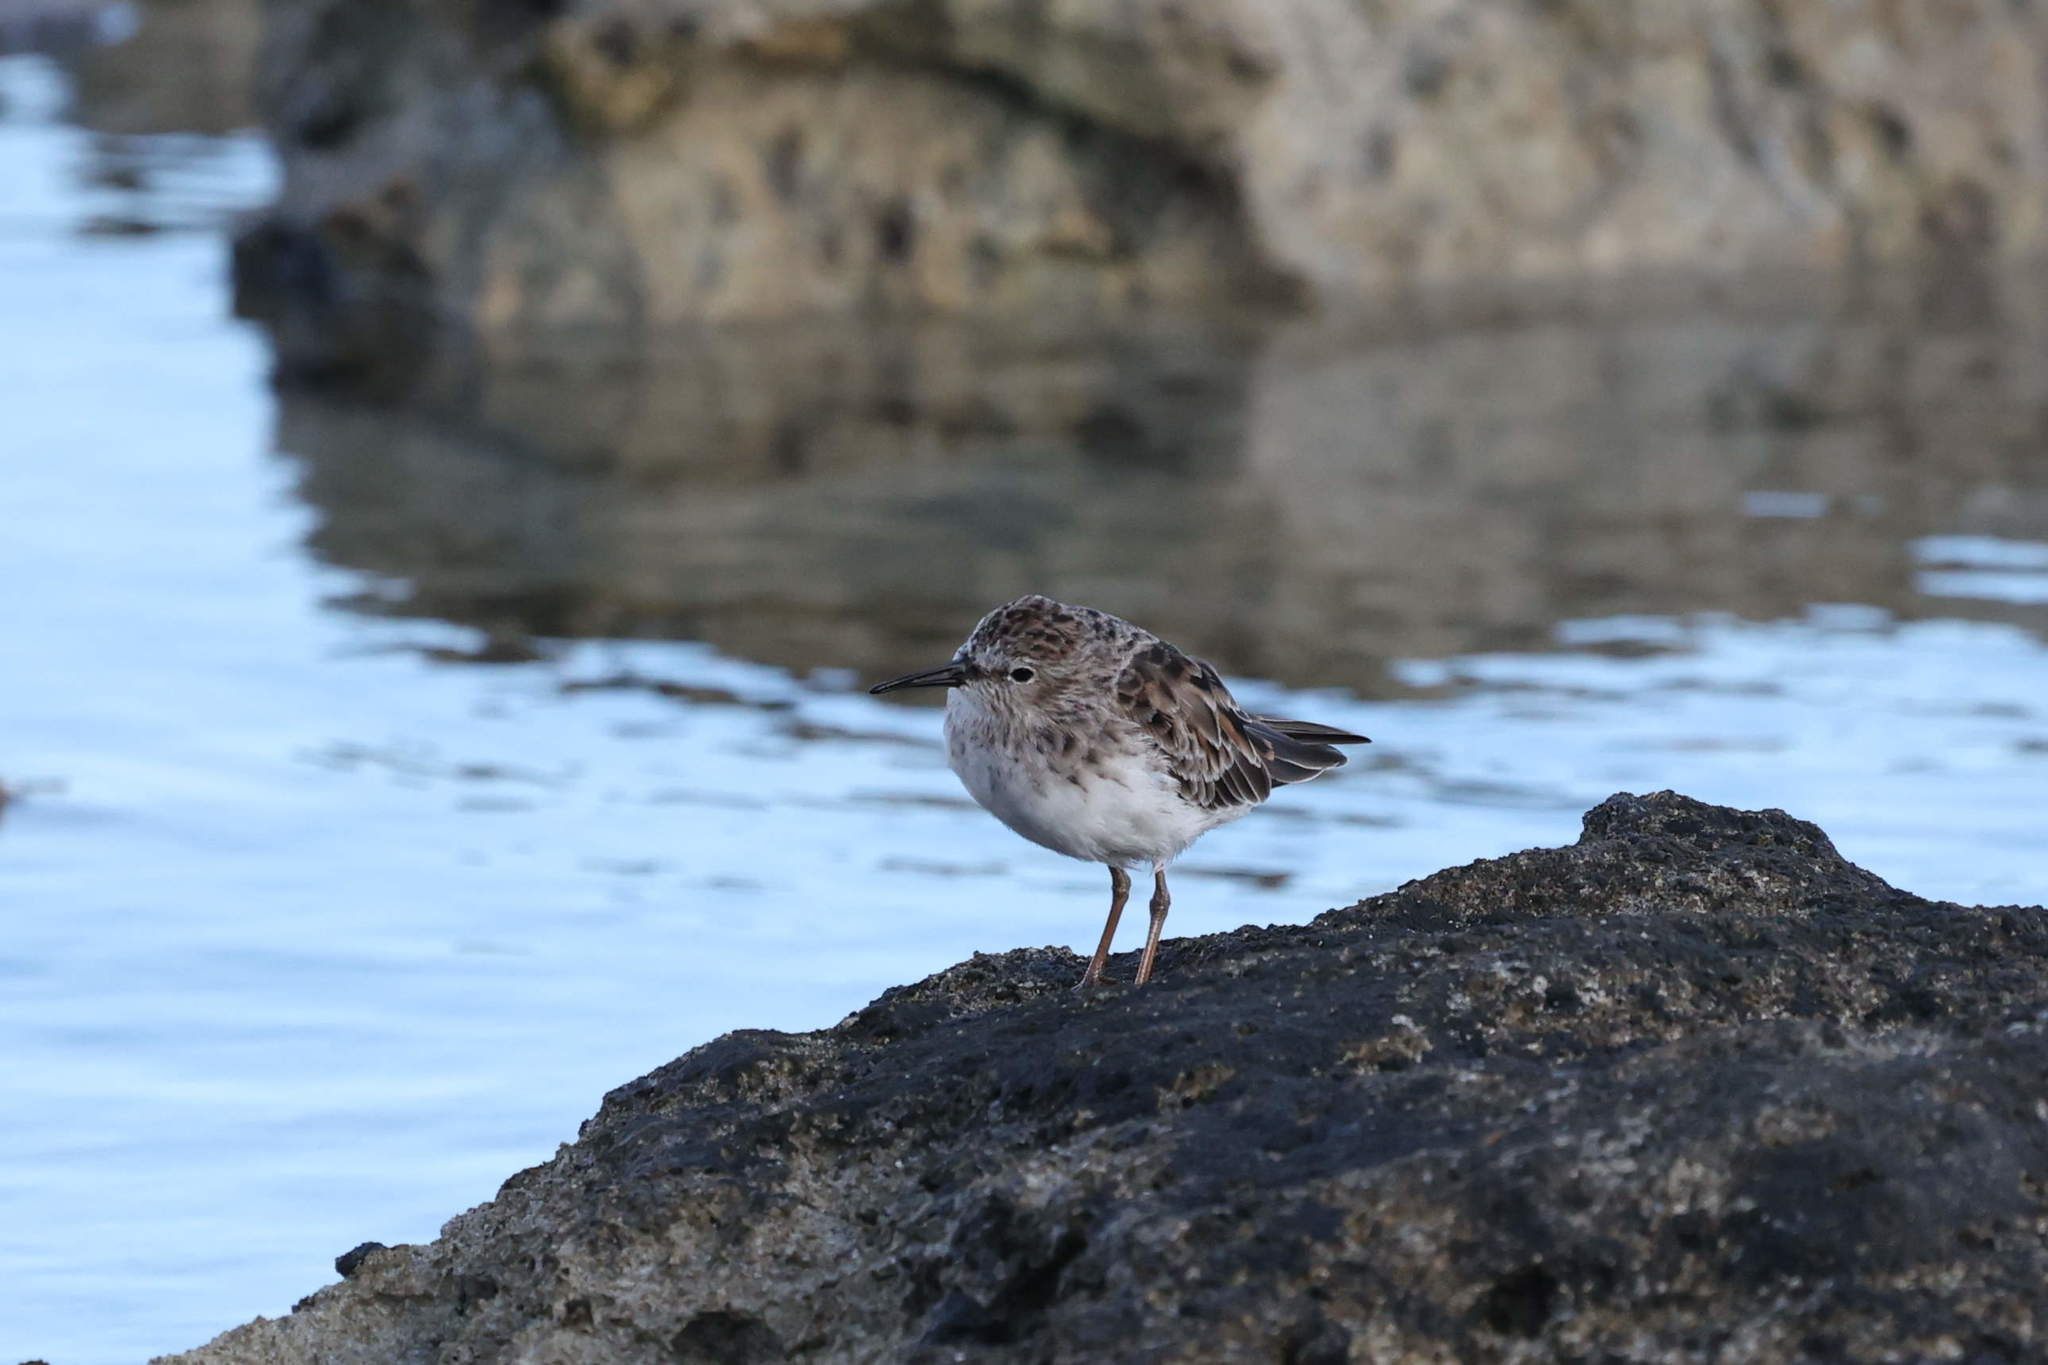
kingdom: Animalia
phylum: Chordata
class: Aves
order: Charadriiformes
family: Scolopacidae
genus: Calidris
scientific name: Calidris minutilla
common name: Least sandpiper
